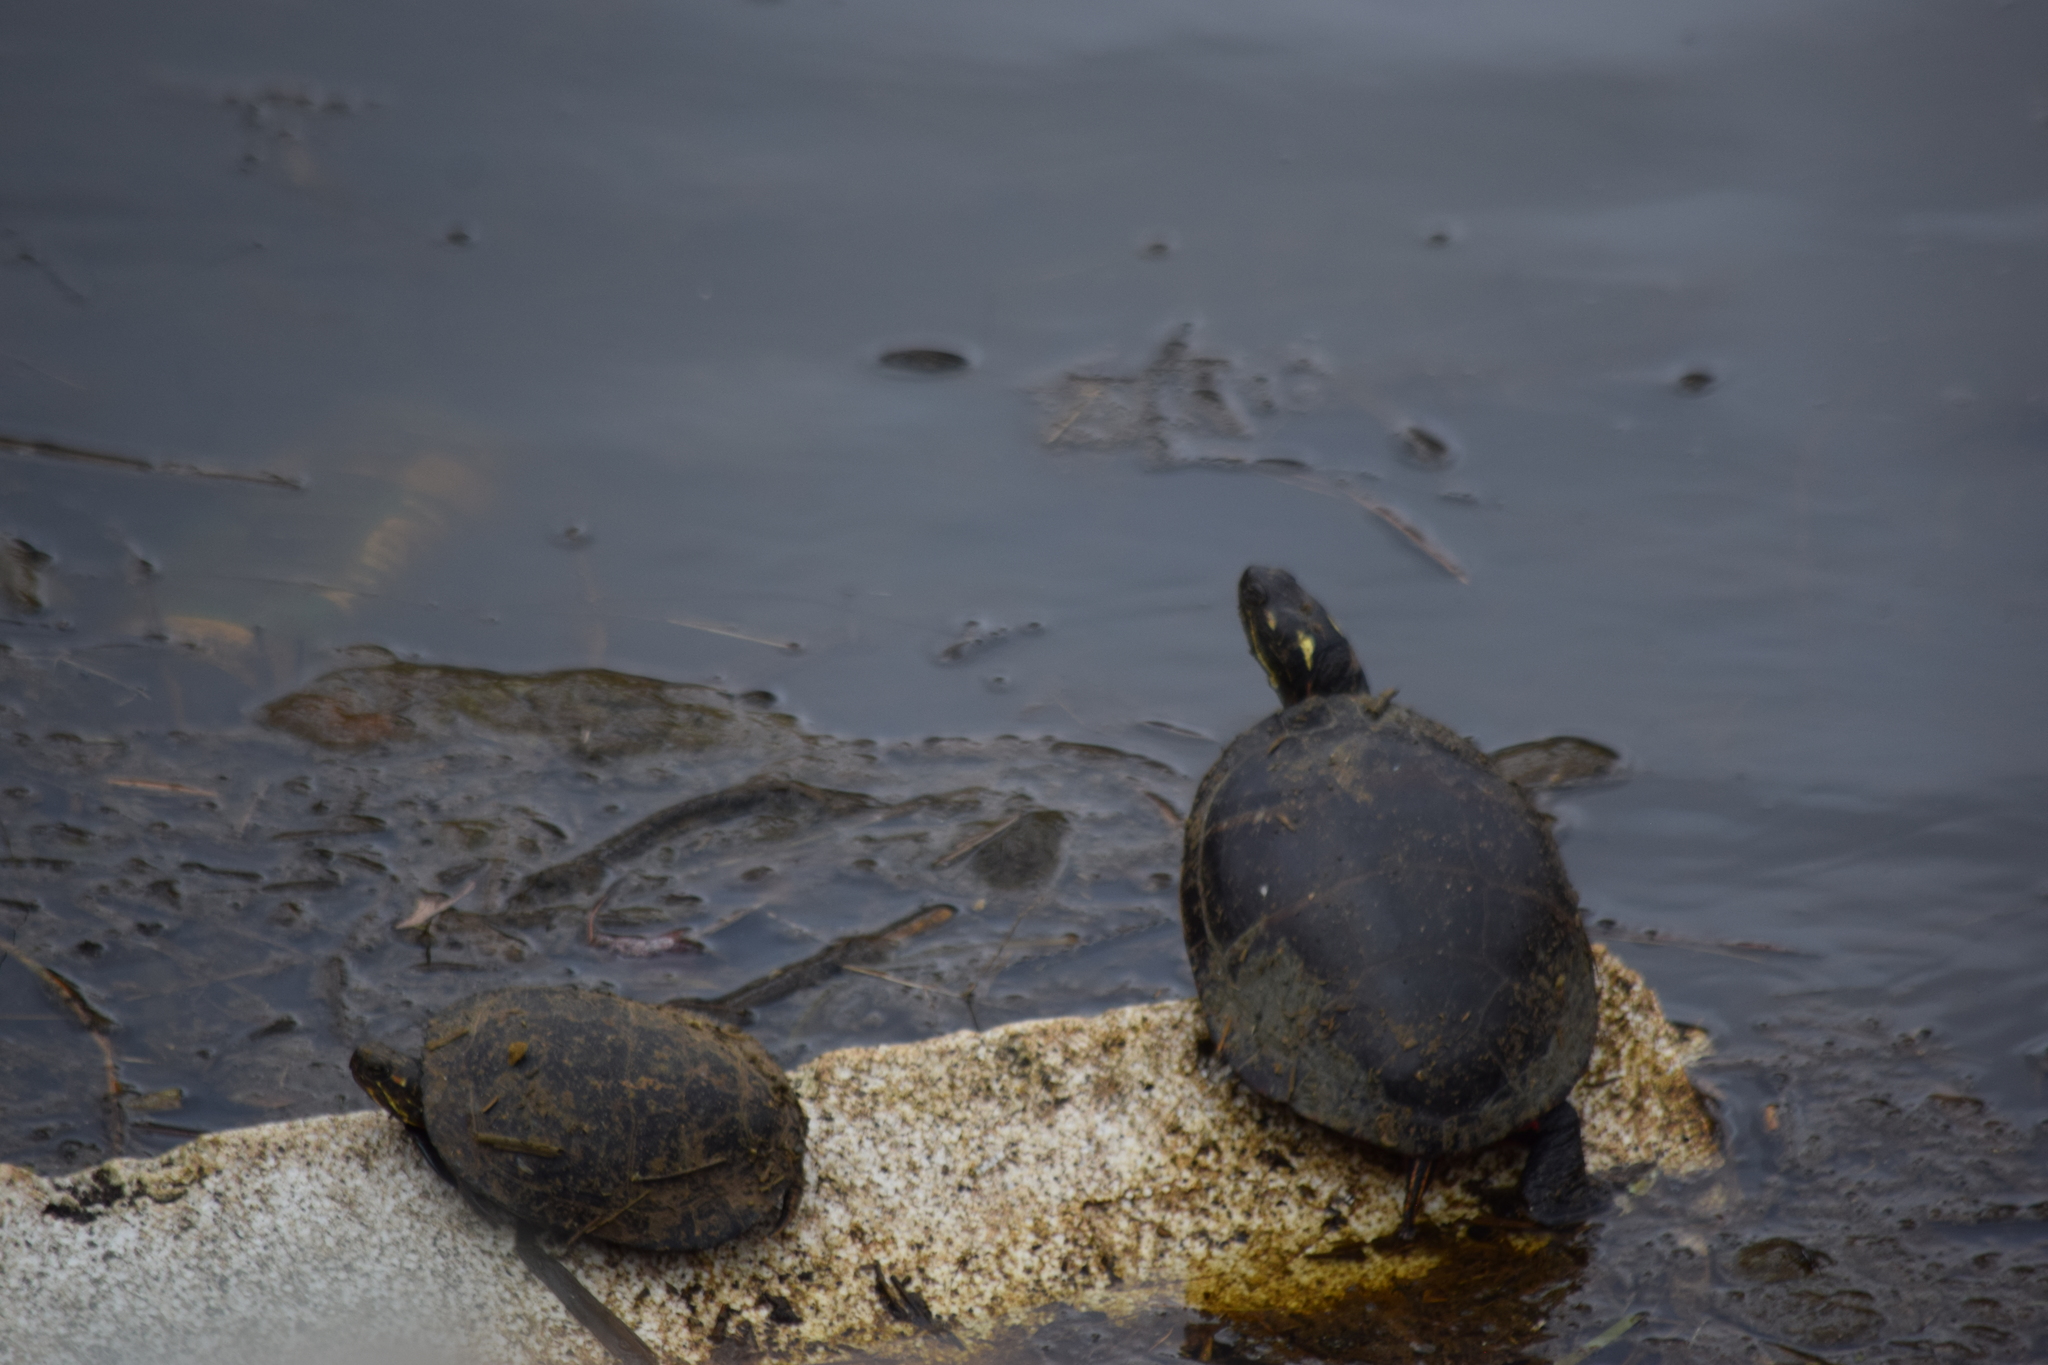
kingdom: Animalia
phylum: Chordata
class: Testudines
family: Emydidae
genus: Chrysemys
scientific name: Chrysemys picta
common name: Painted turtle
